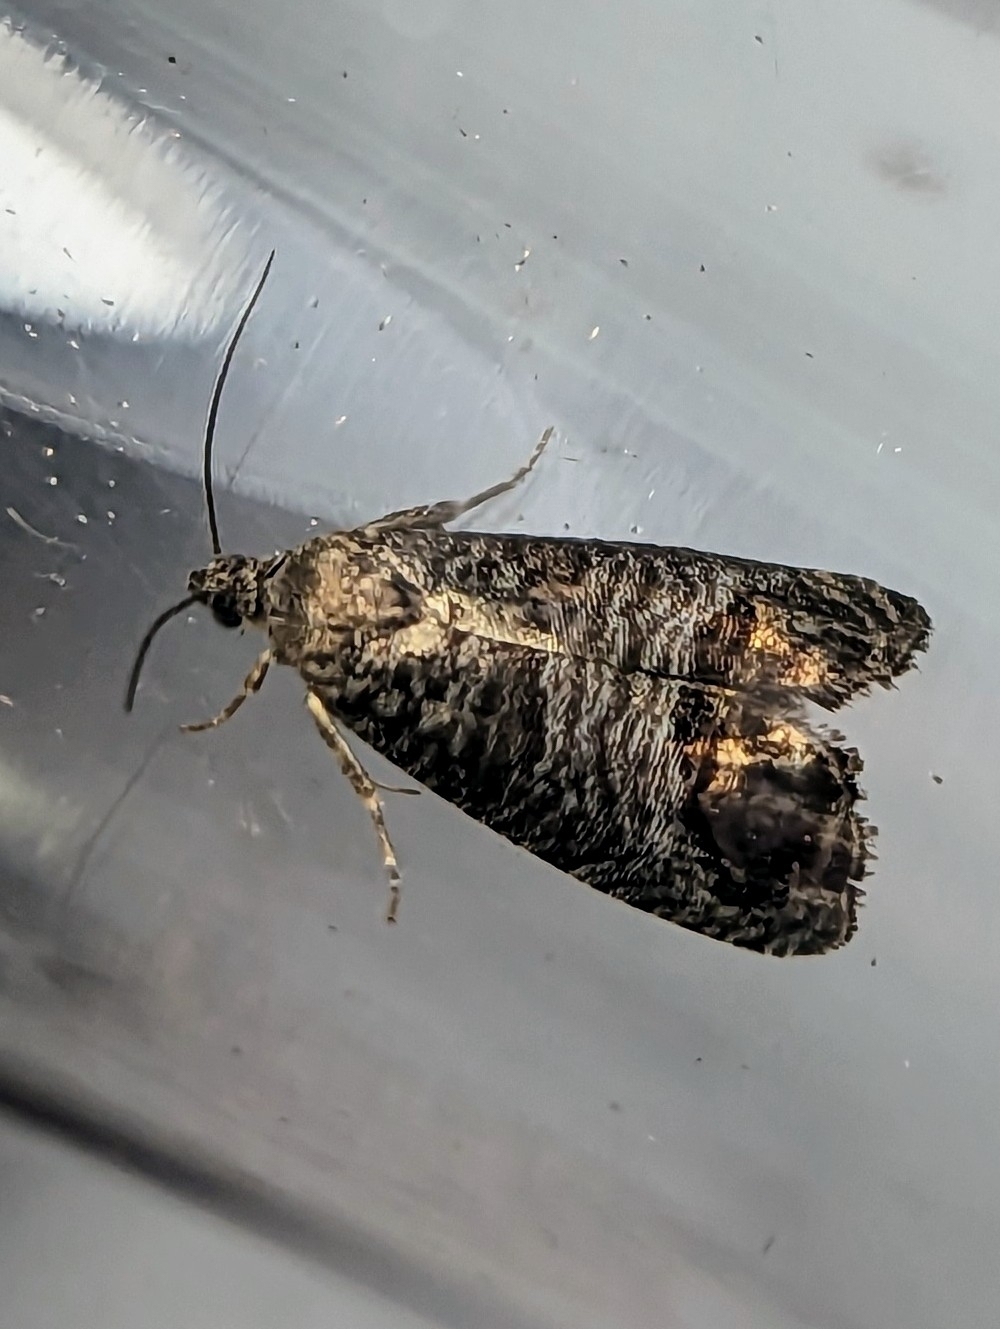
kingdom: Animalia
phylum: Arthropoda
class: Insecta
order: Lepidoptera
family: Tortricidae
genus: Cydia
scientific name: Cydia pomonella
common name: Codling moth
